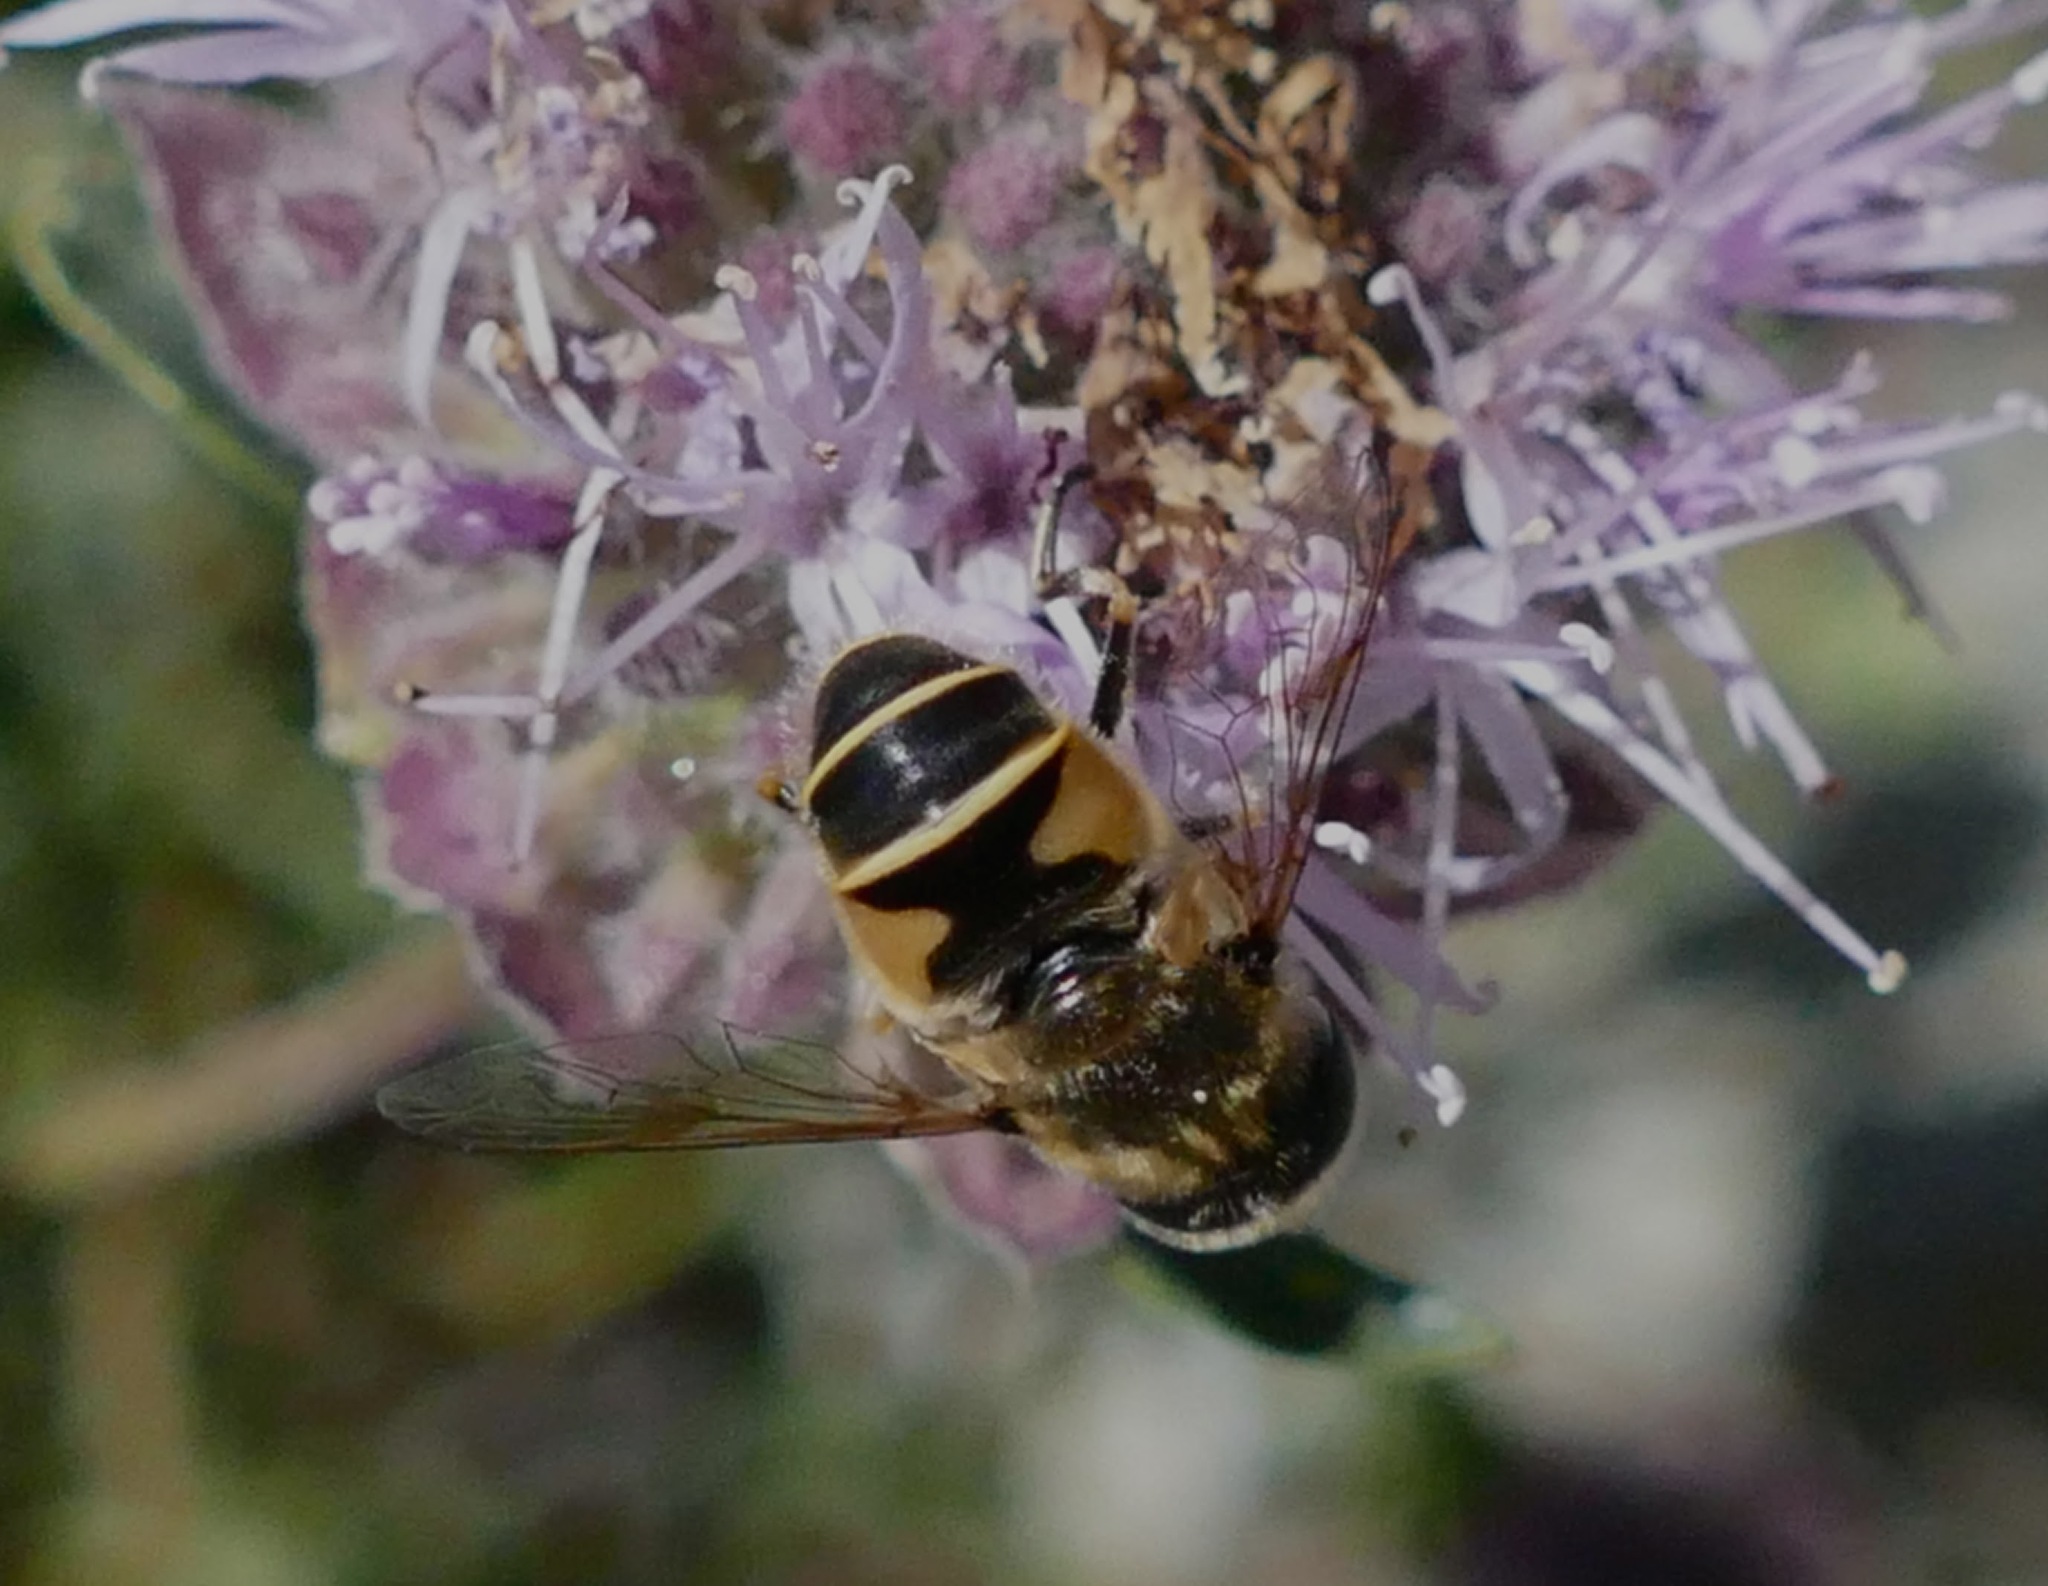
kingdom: Animalia
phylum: Arthropoda
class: Insecta
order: Diptera
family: Syrphidae
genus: Eristalis
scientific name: Eristalis hirta
